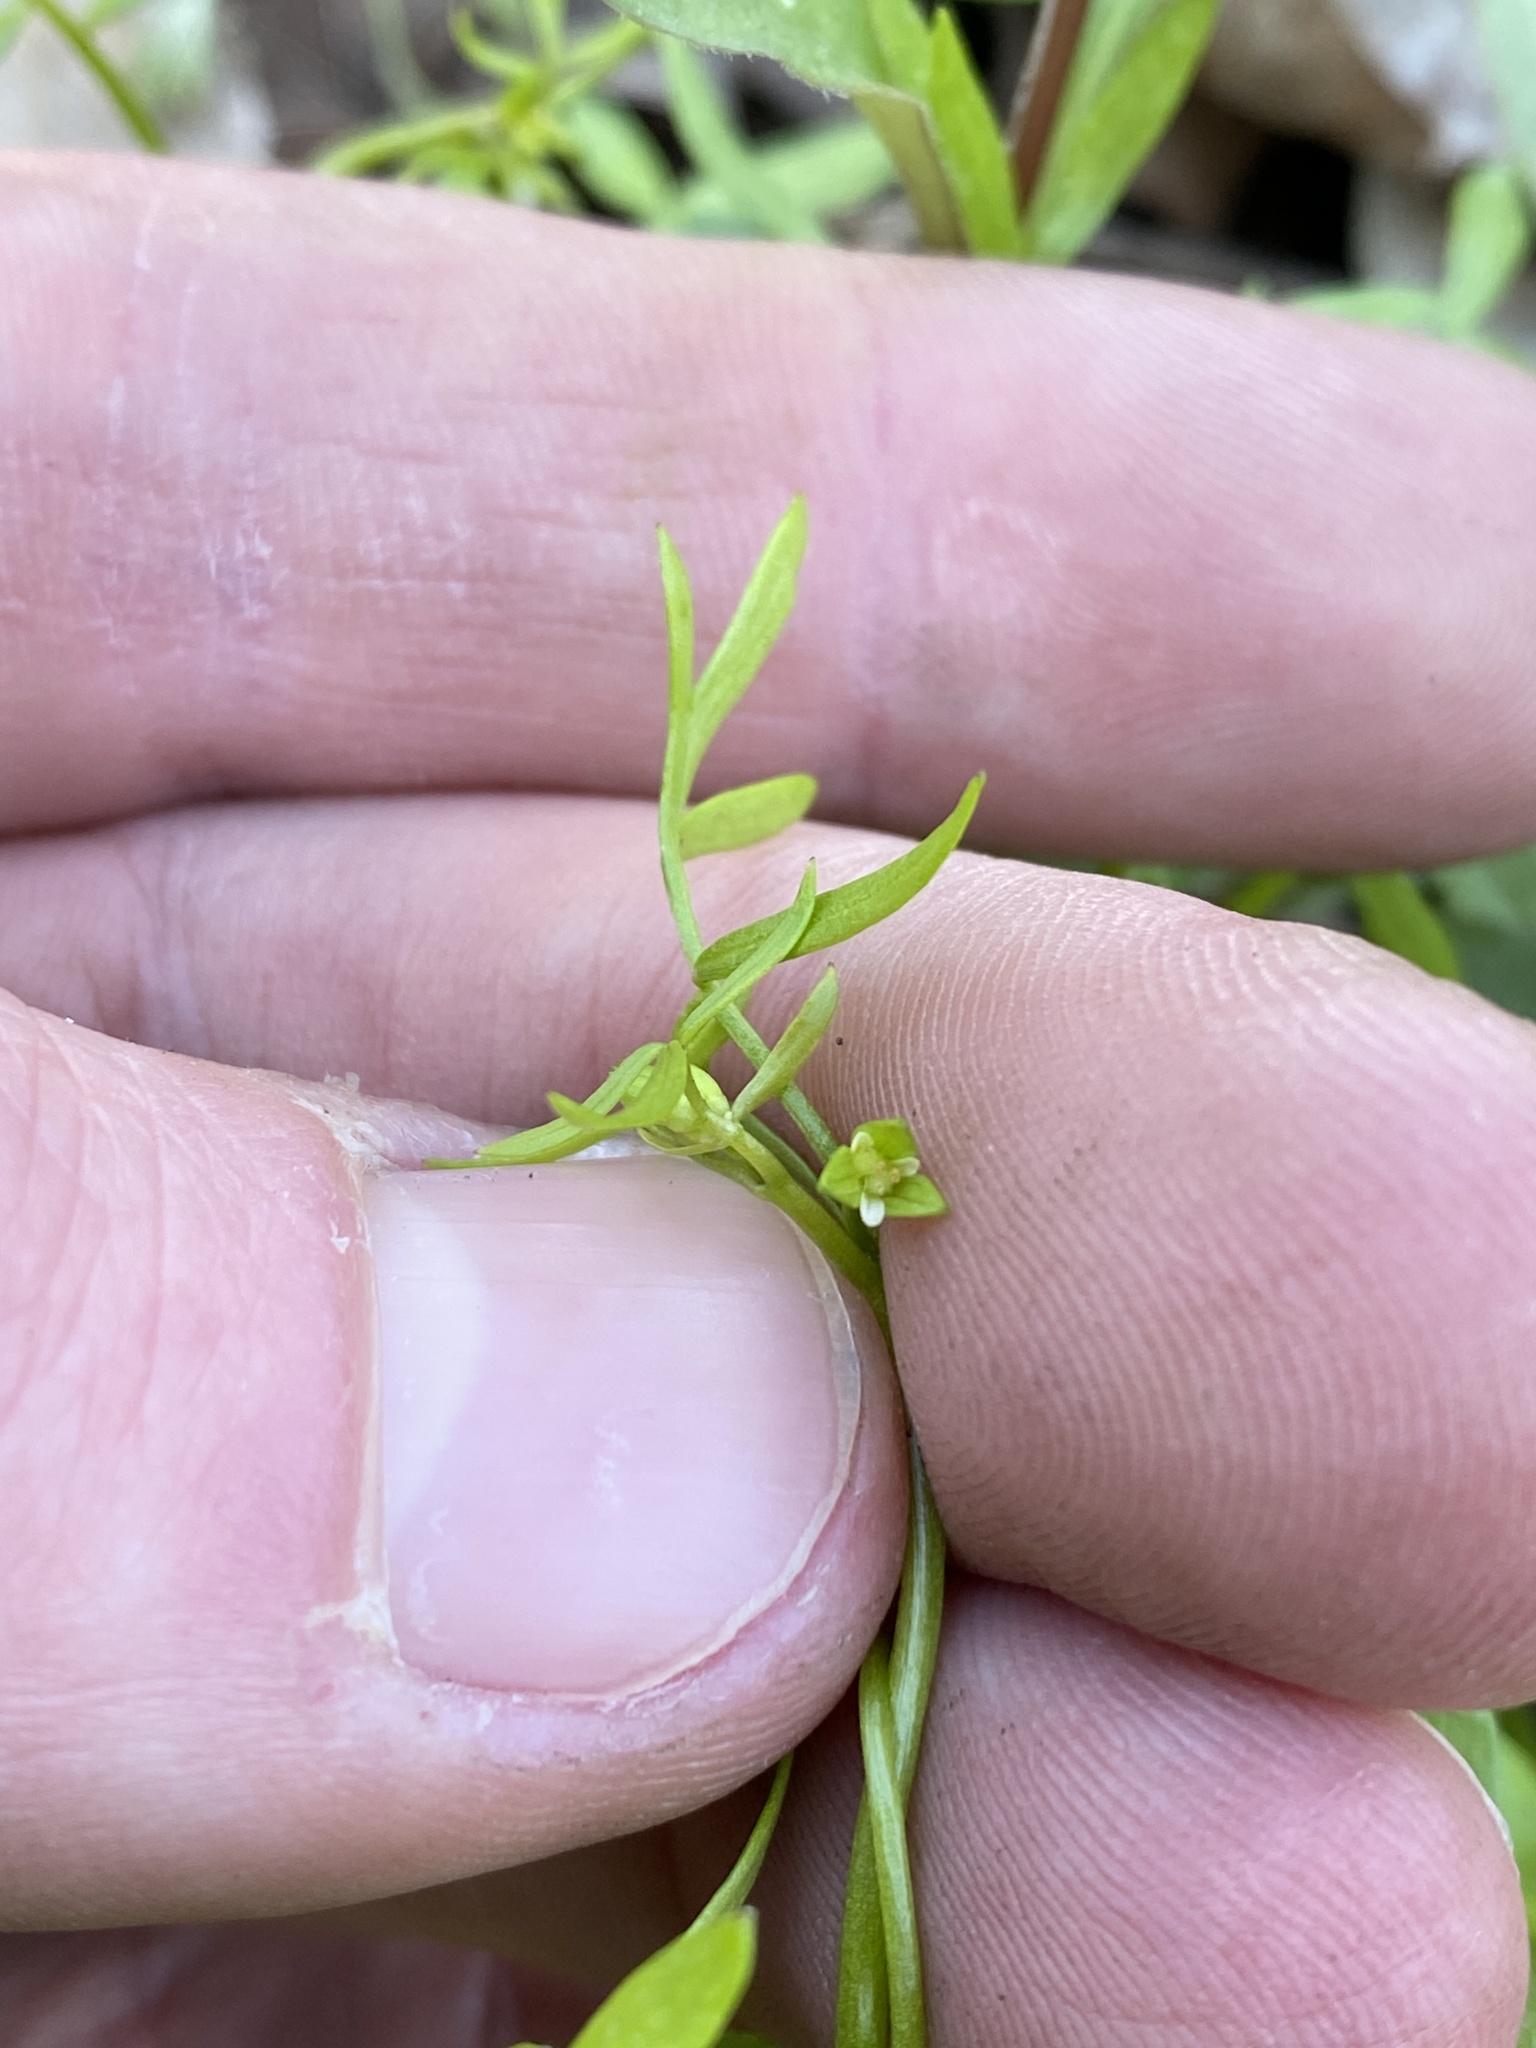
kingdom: Plantae
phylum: Tracheophyta
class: Magnoliopsida
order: Brassicales
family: Limnanthaceae
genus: Floerkea
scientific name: Floerkea proserpinacoides
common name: False mermaid
